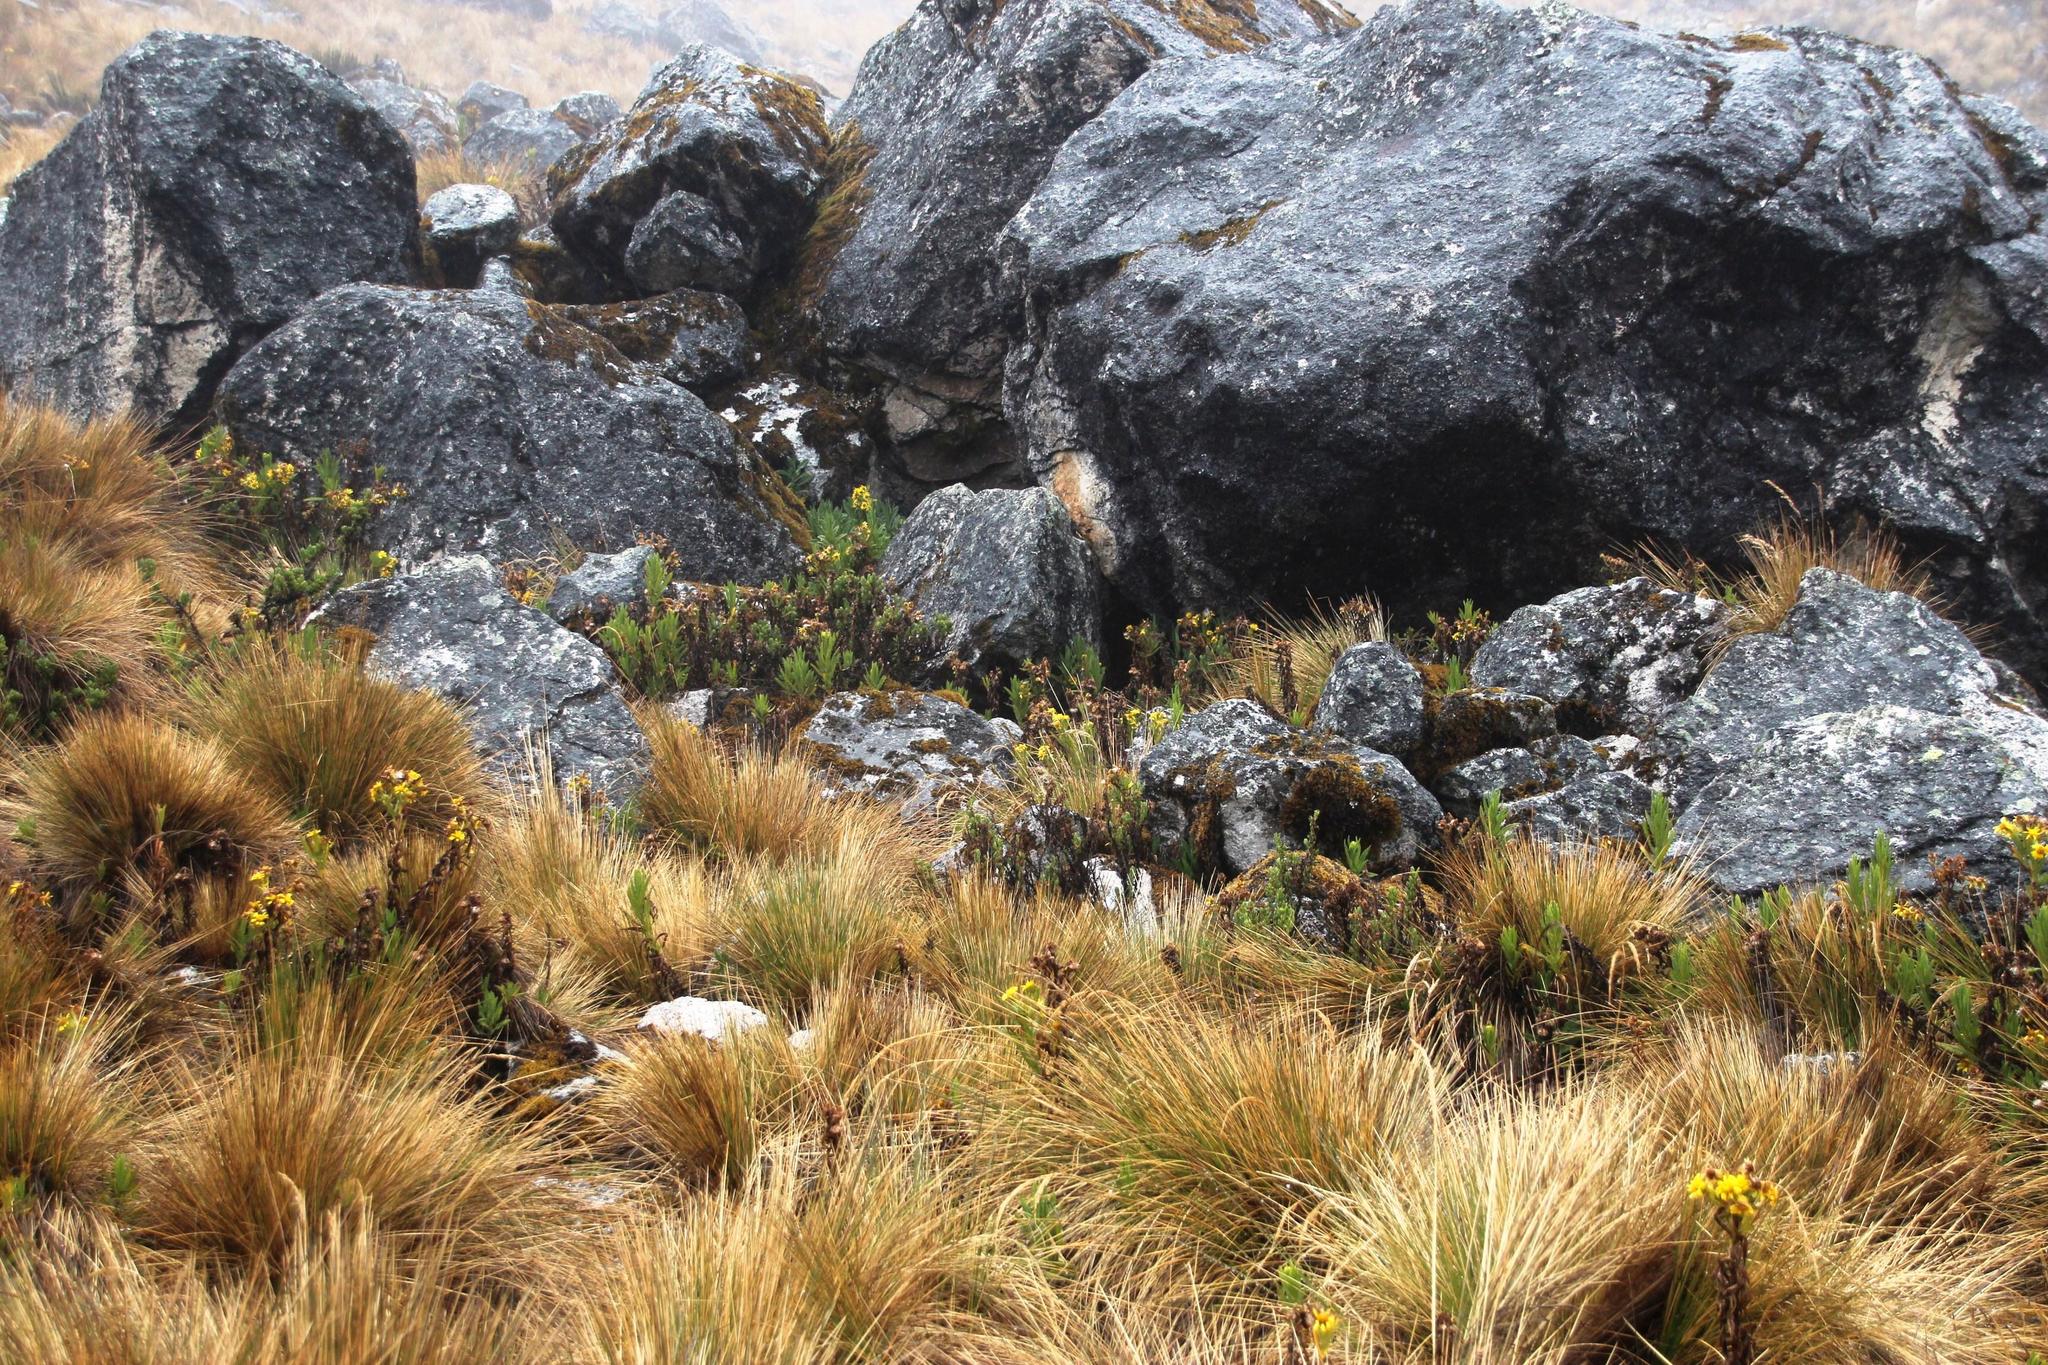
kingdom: Plantae
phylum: Tracheophyta
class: Magnoliopsida
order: Asterales
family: Asteraceae
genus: Senecio
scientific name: Senecio herrerae
